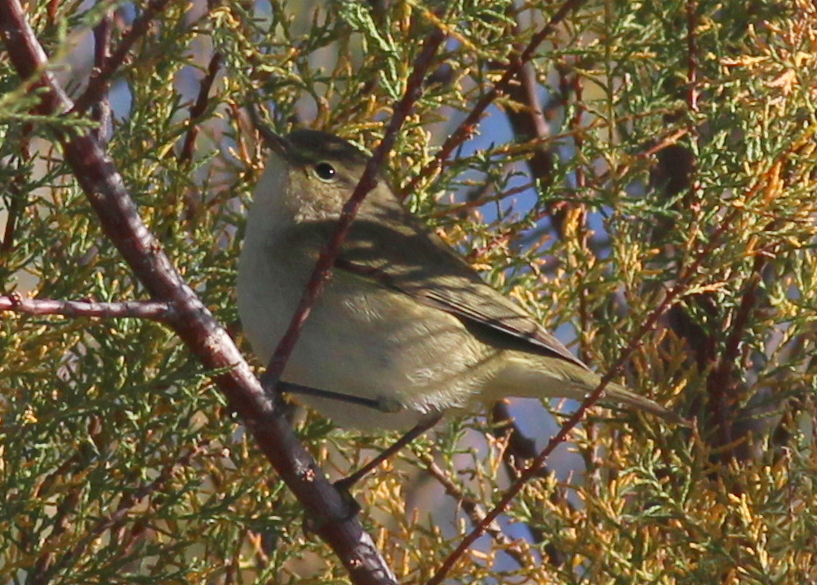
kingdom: Animalia
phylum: Chordata
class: Aves
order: Passeriformes
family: Phylloscopidae
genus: Phylloscopus
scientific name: Phylloscopus collybita
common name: Common chiffchaff
